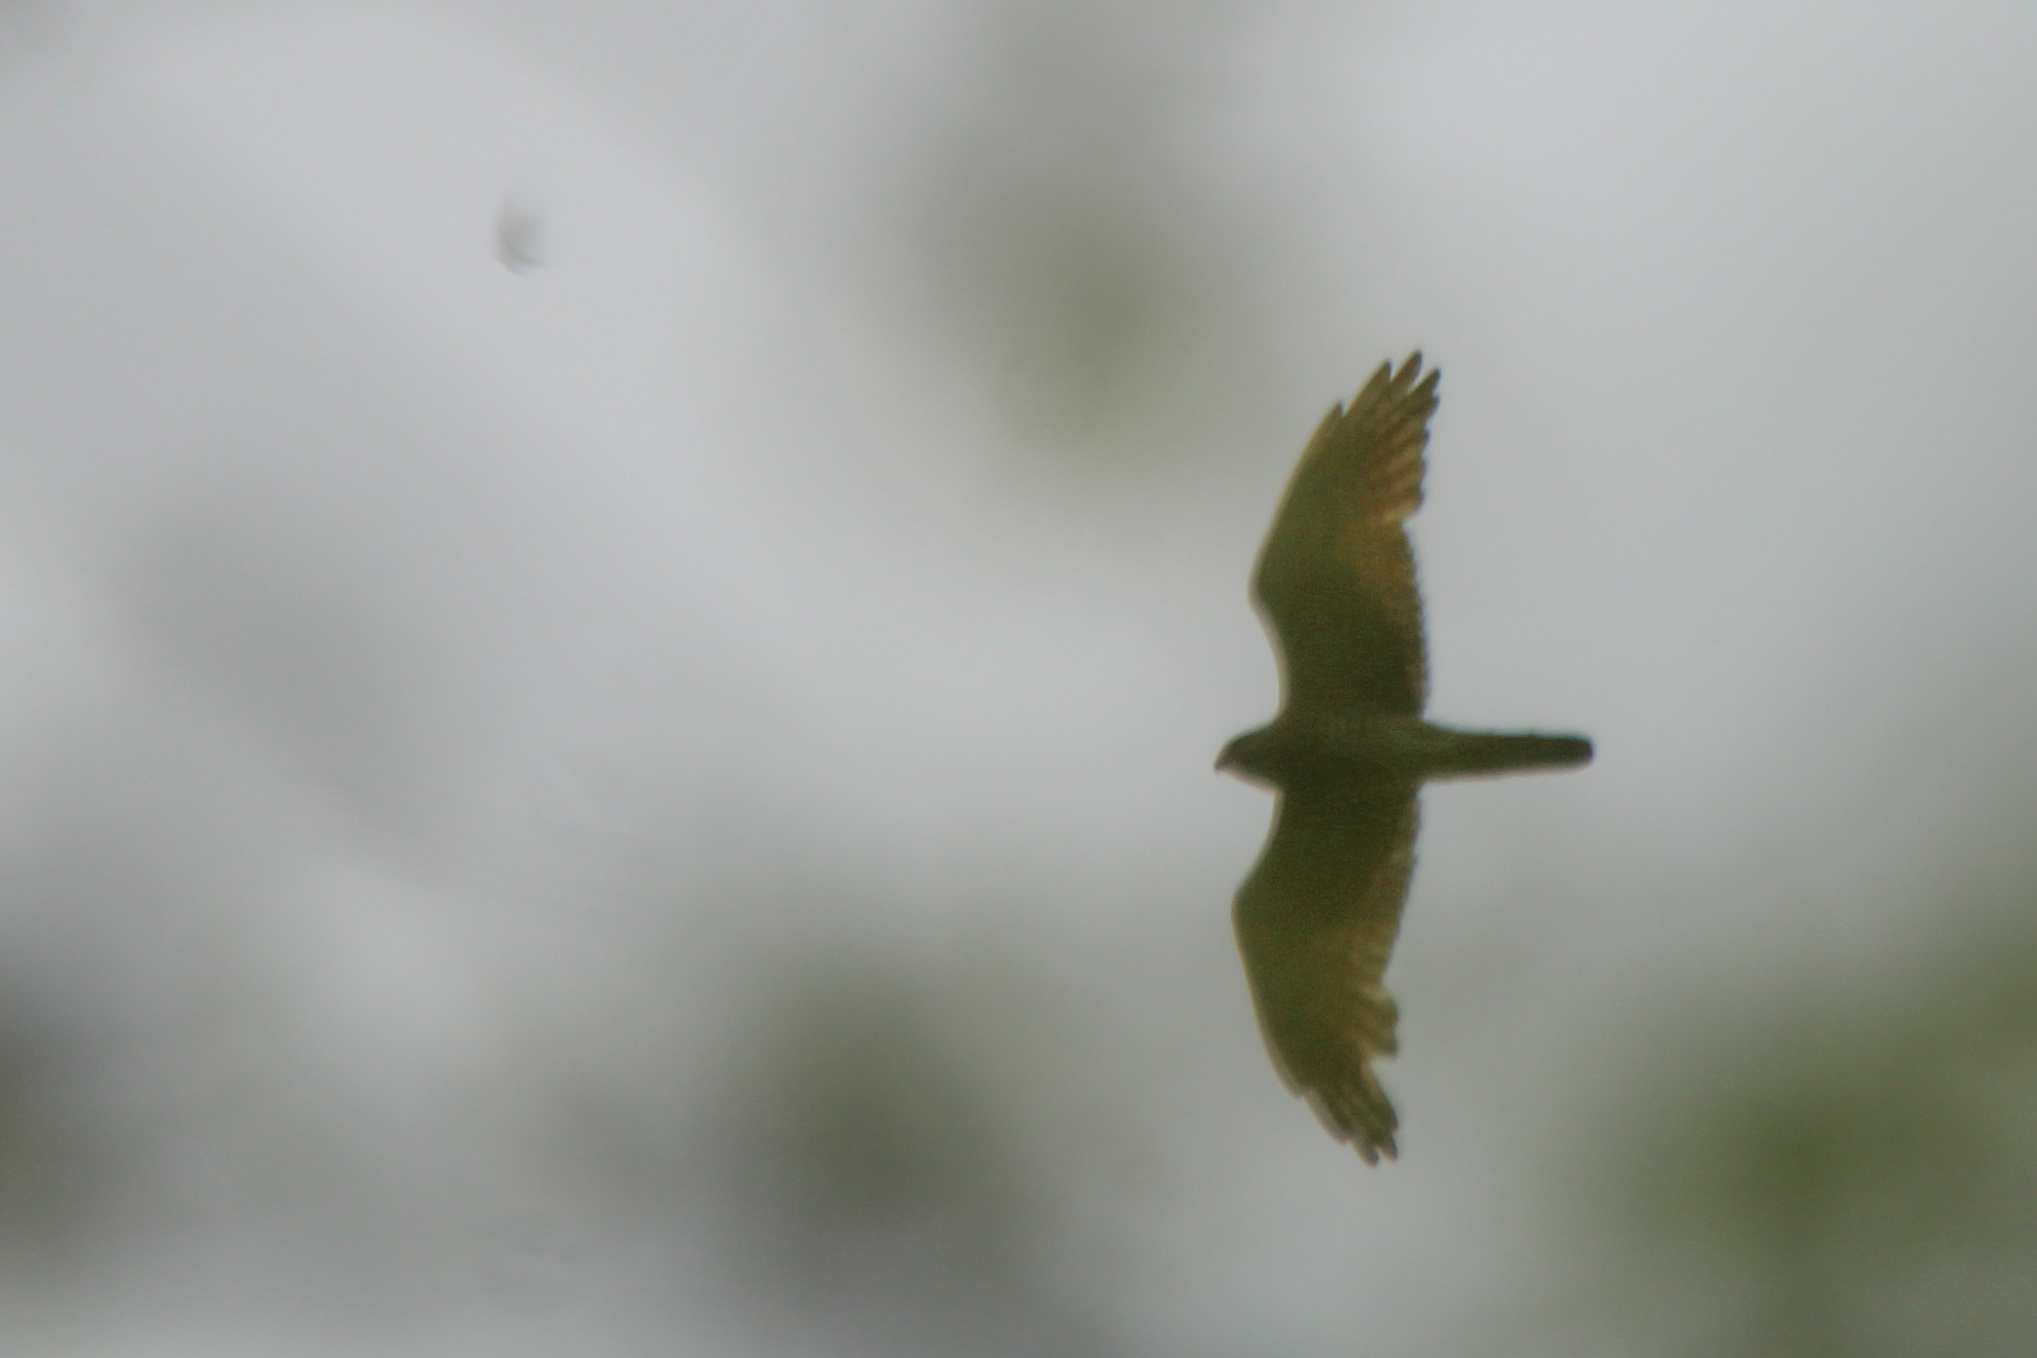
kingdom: Animalia
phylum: Chordata
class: Aves
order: Accipitriformes
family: Accipitridae
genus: Butastur
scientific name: Butastur indicus
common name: Grey-faced buzzard
